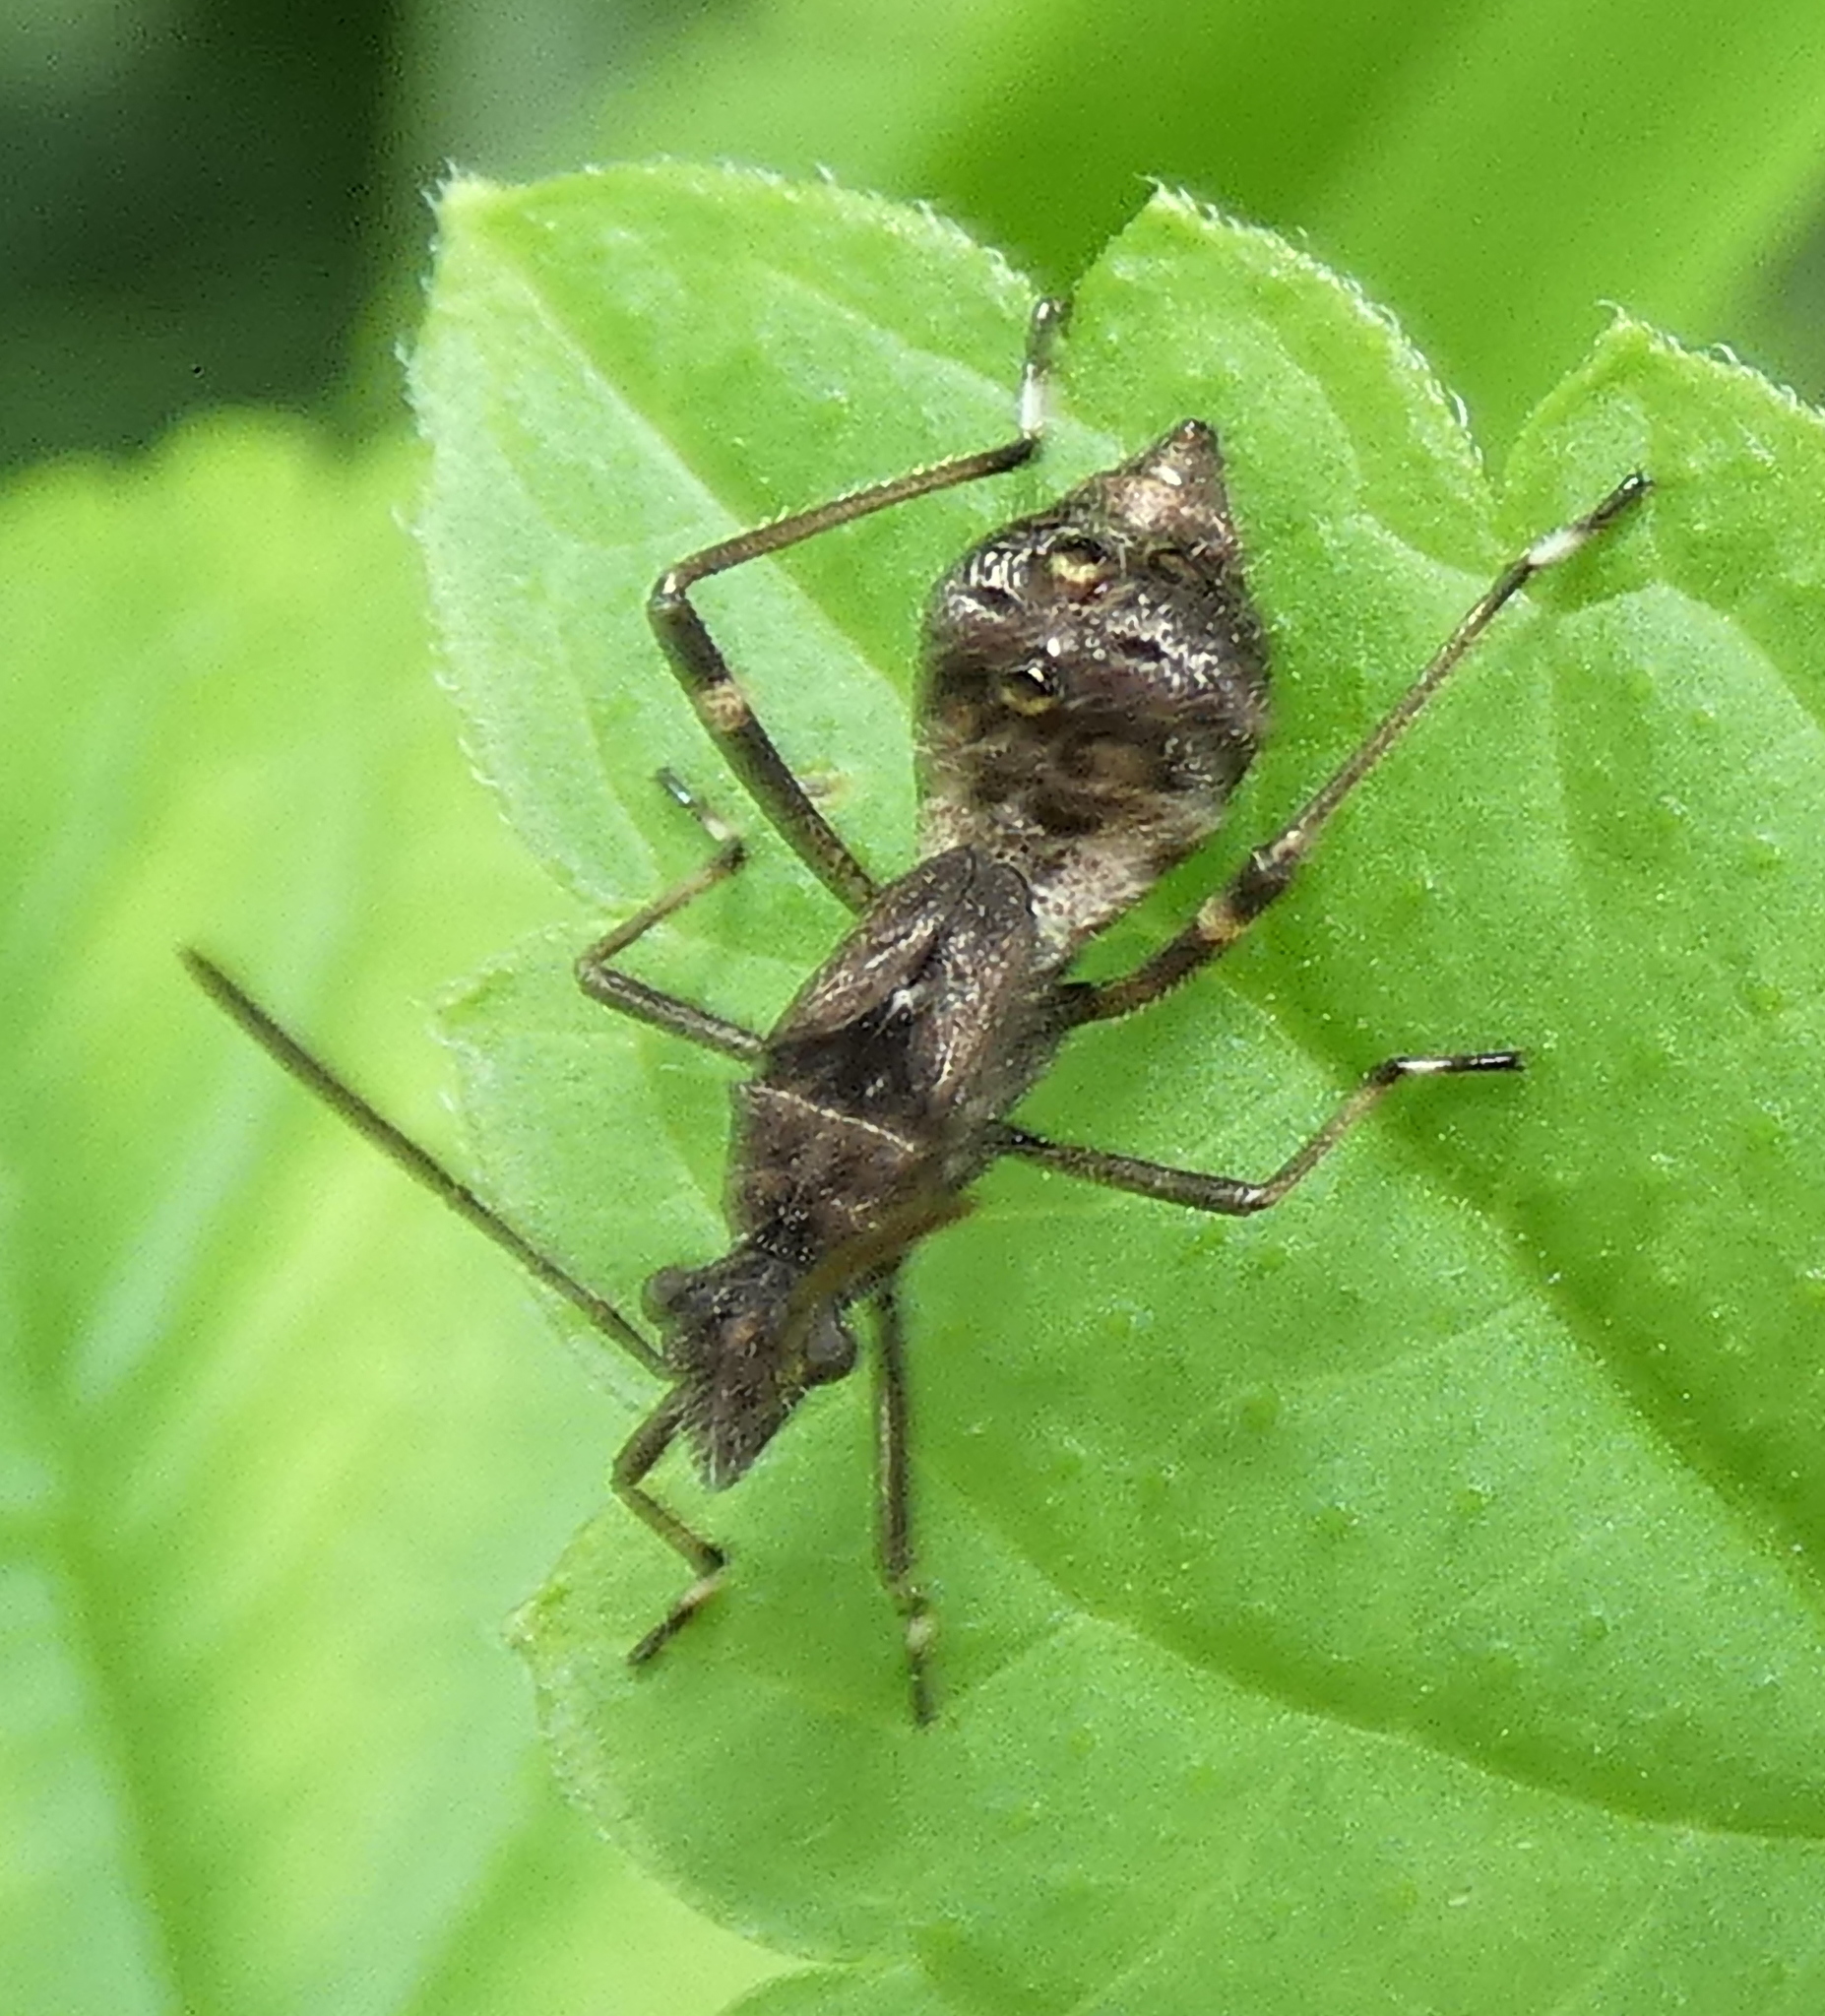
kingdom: Animalia
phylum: Arthropoda
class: Insecta
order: Hemiptera
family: Alydidae
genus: Neomegalotomus
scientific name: Neomegalotomus parvus
